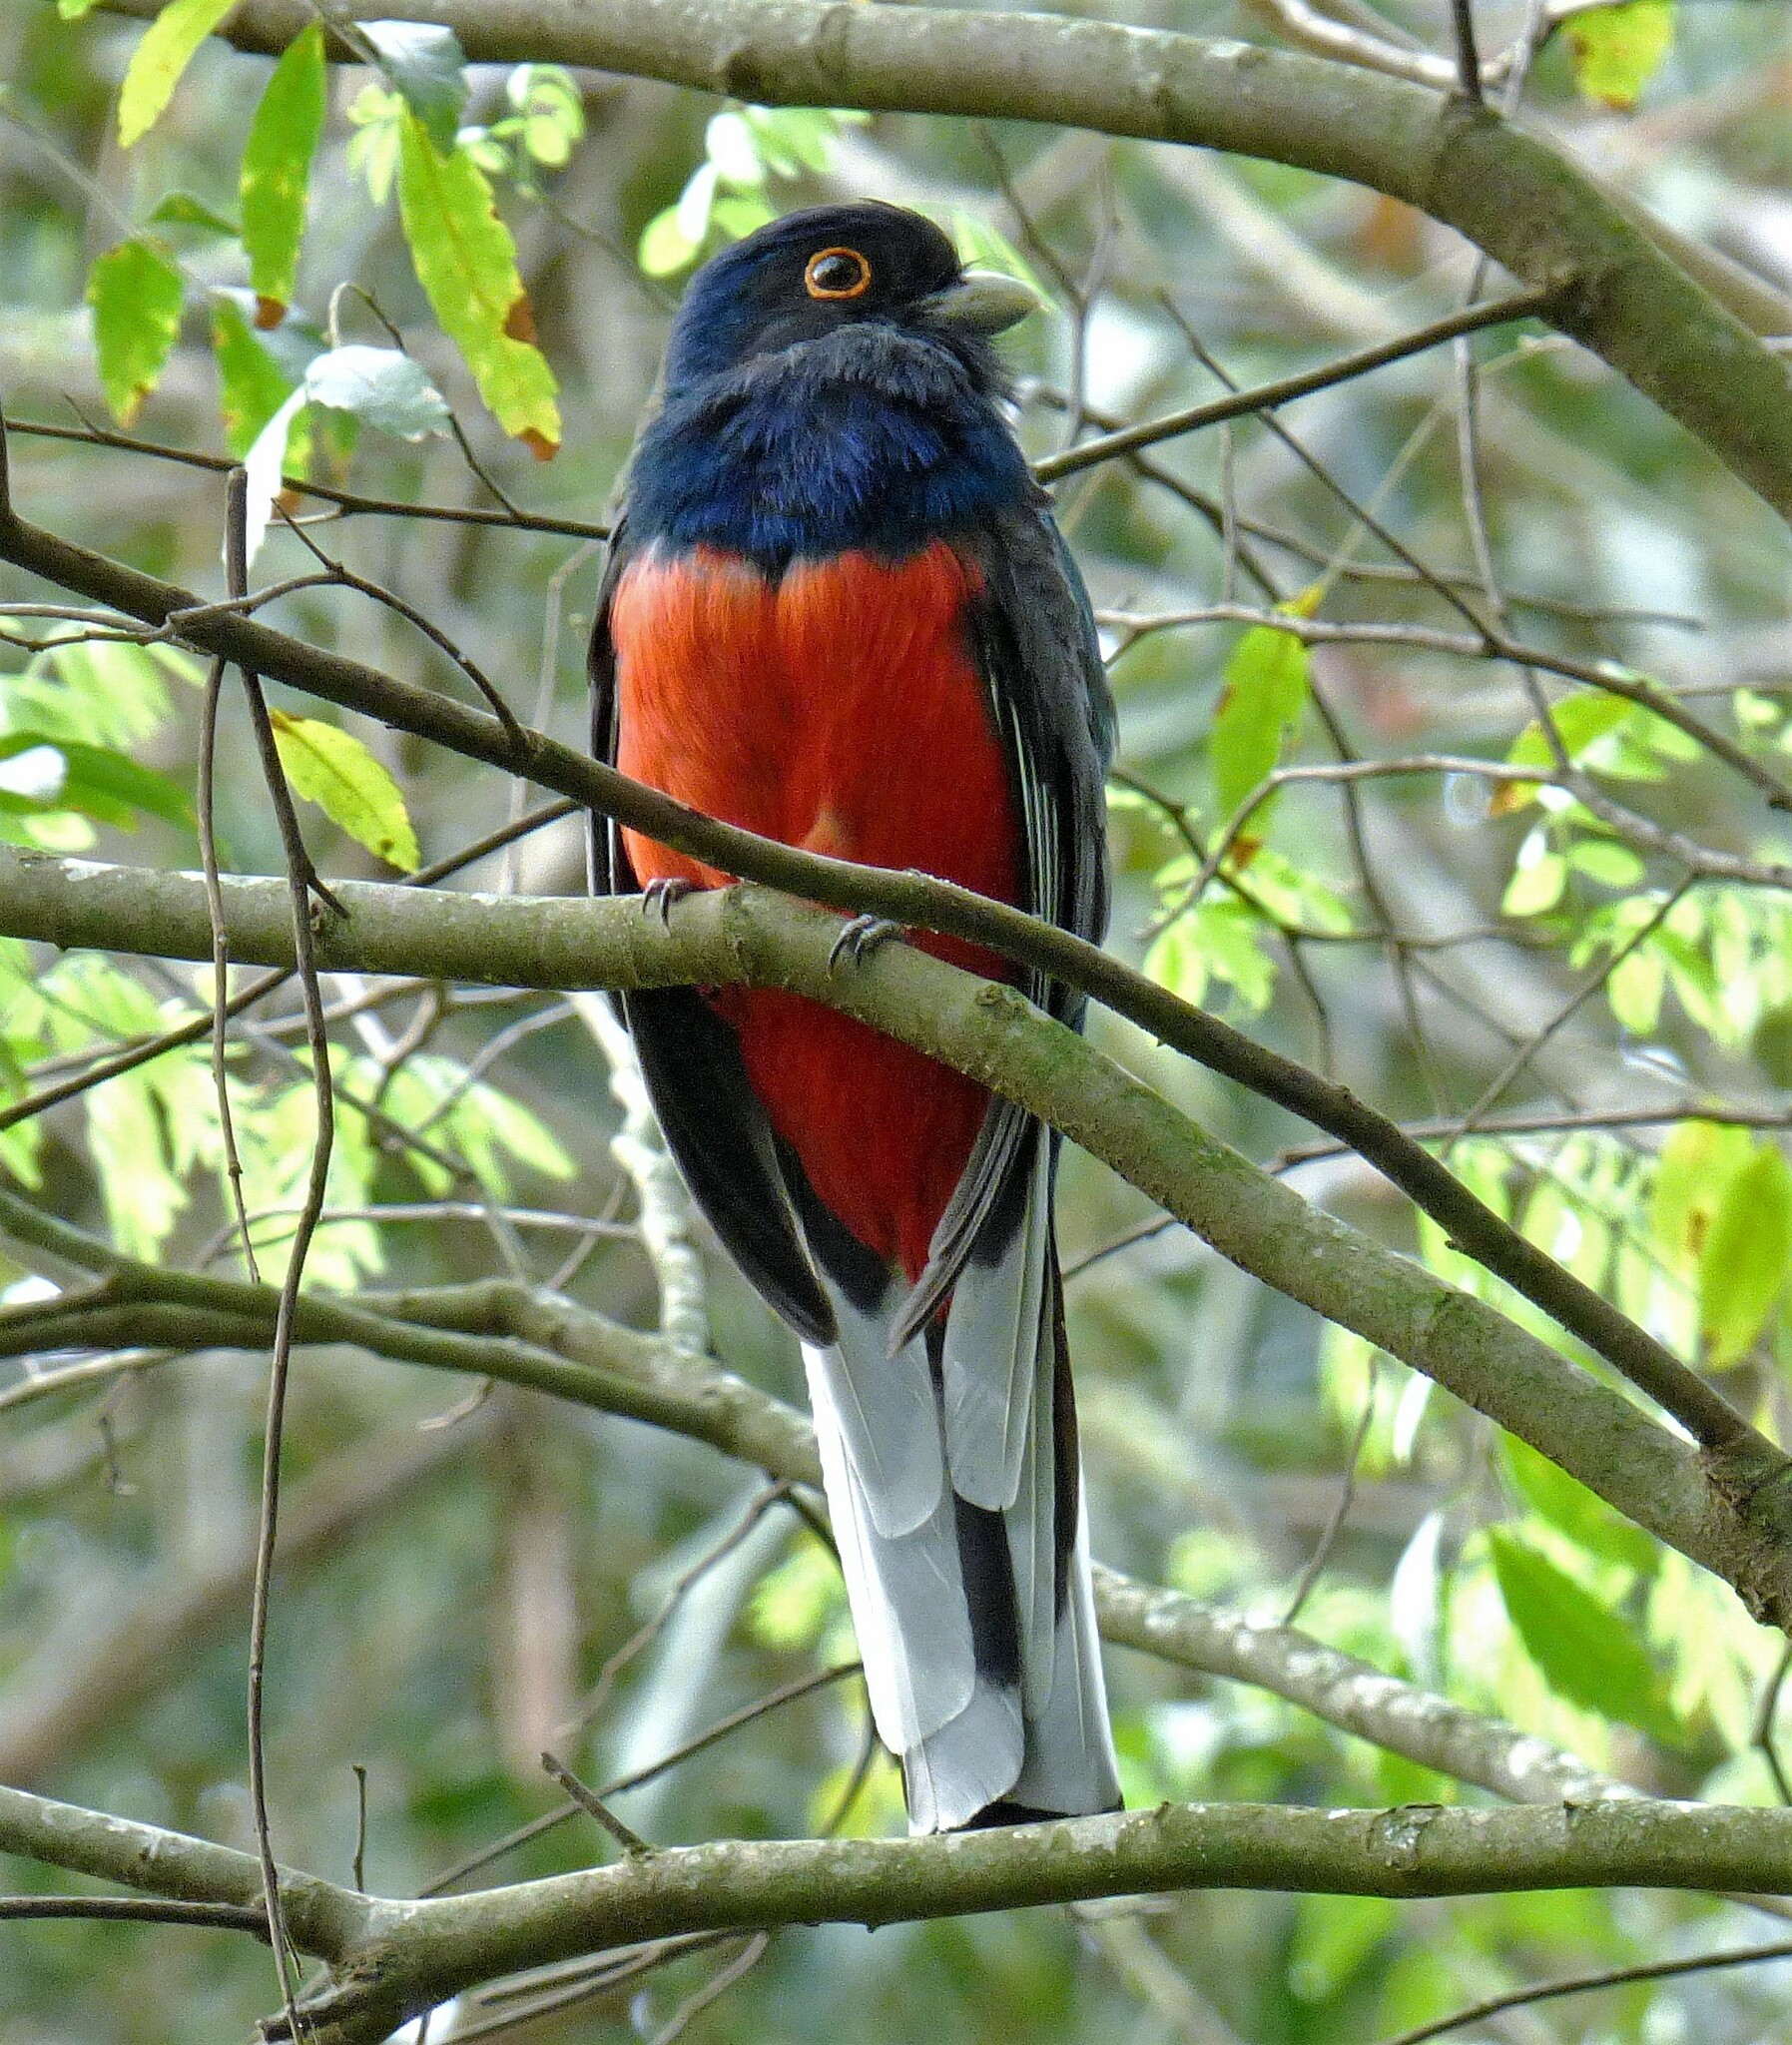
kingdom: Animalia
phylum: Chordata
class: Aves
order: Trogoniformes
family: Trogonidae
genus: Trogon
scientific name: Trogon surrucura
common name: Surucua trogon
